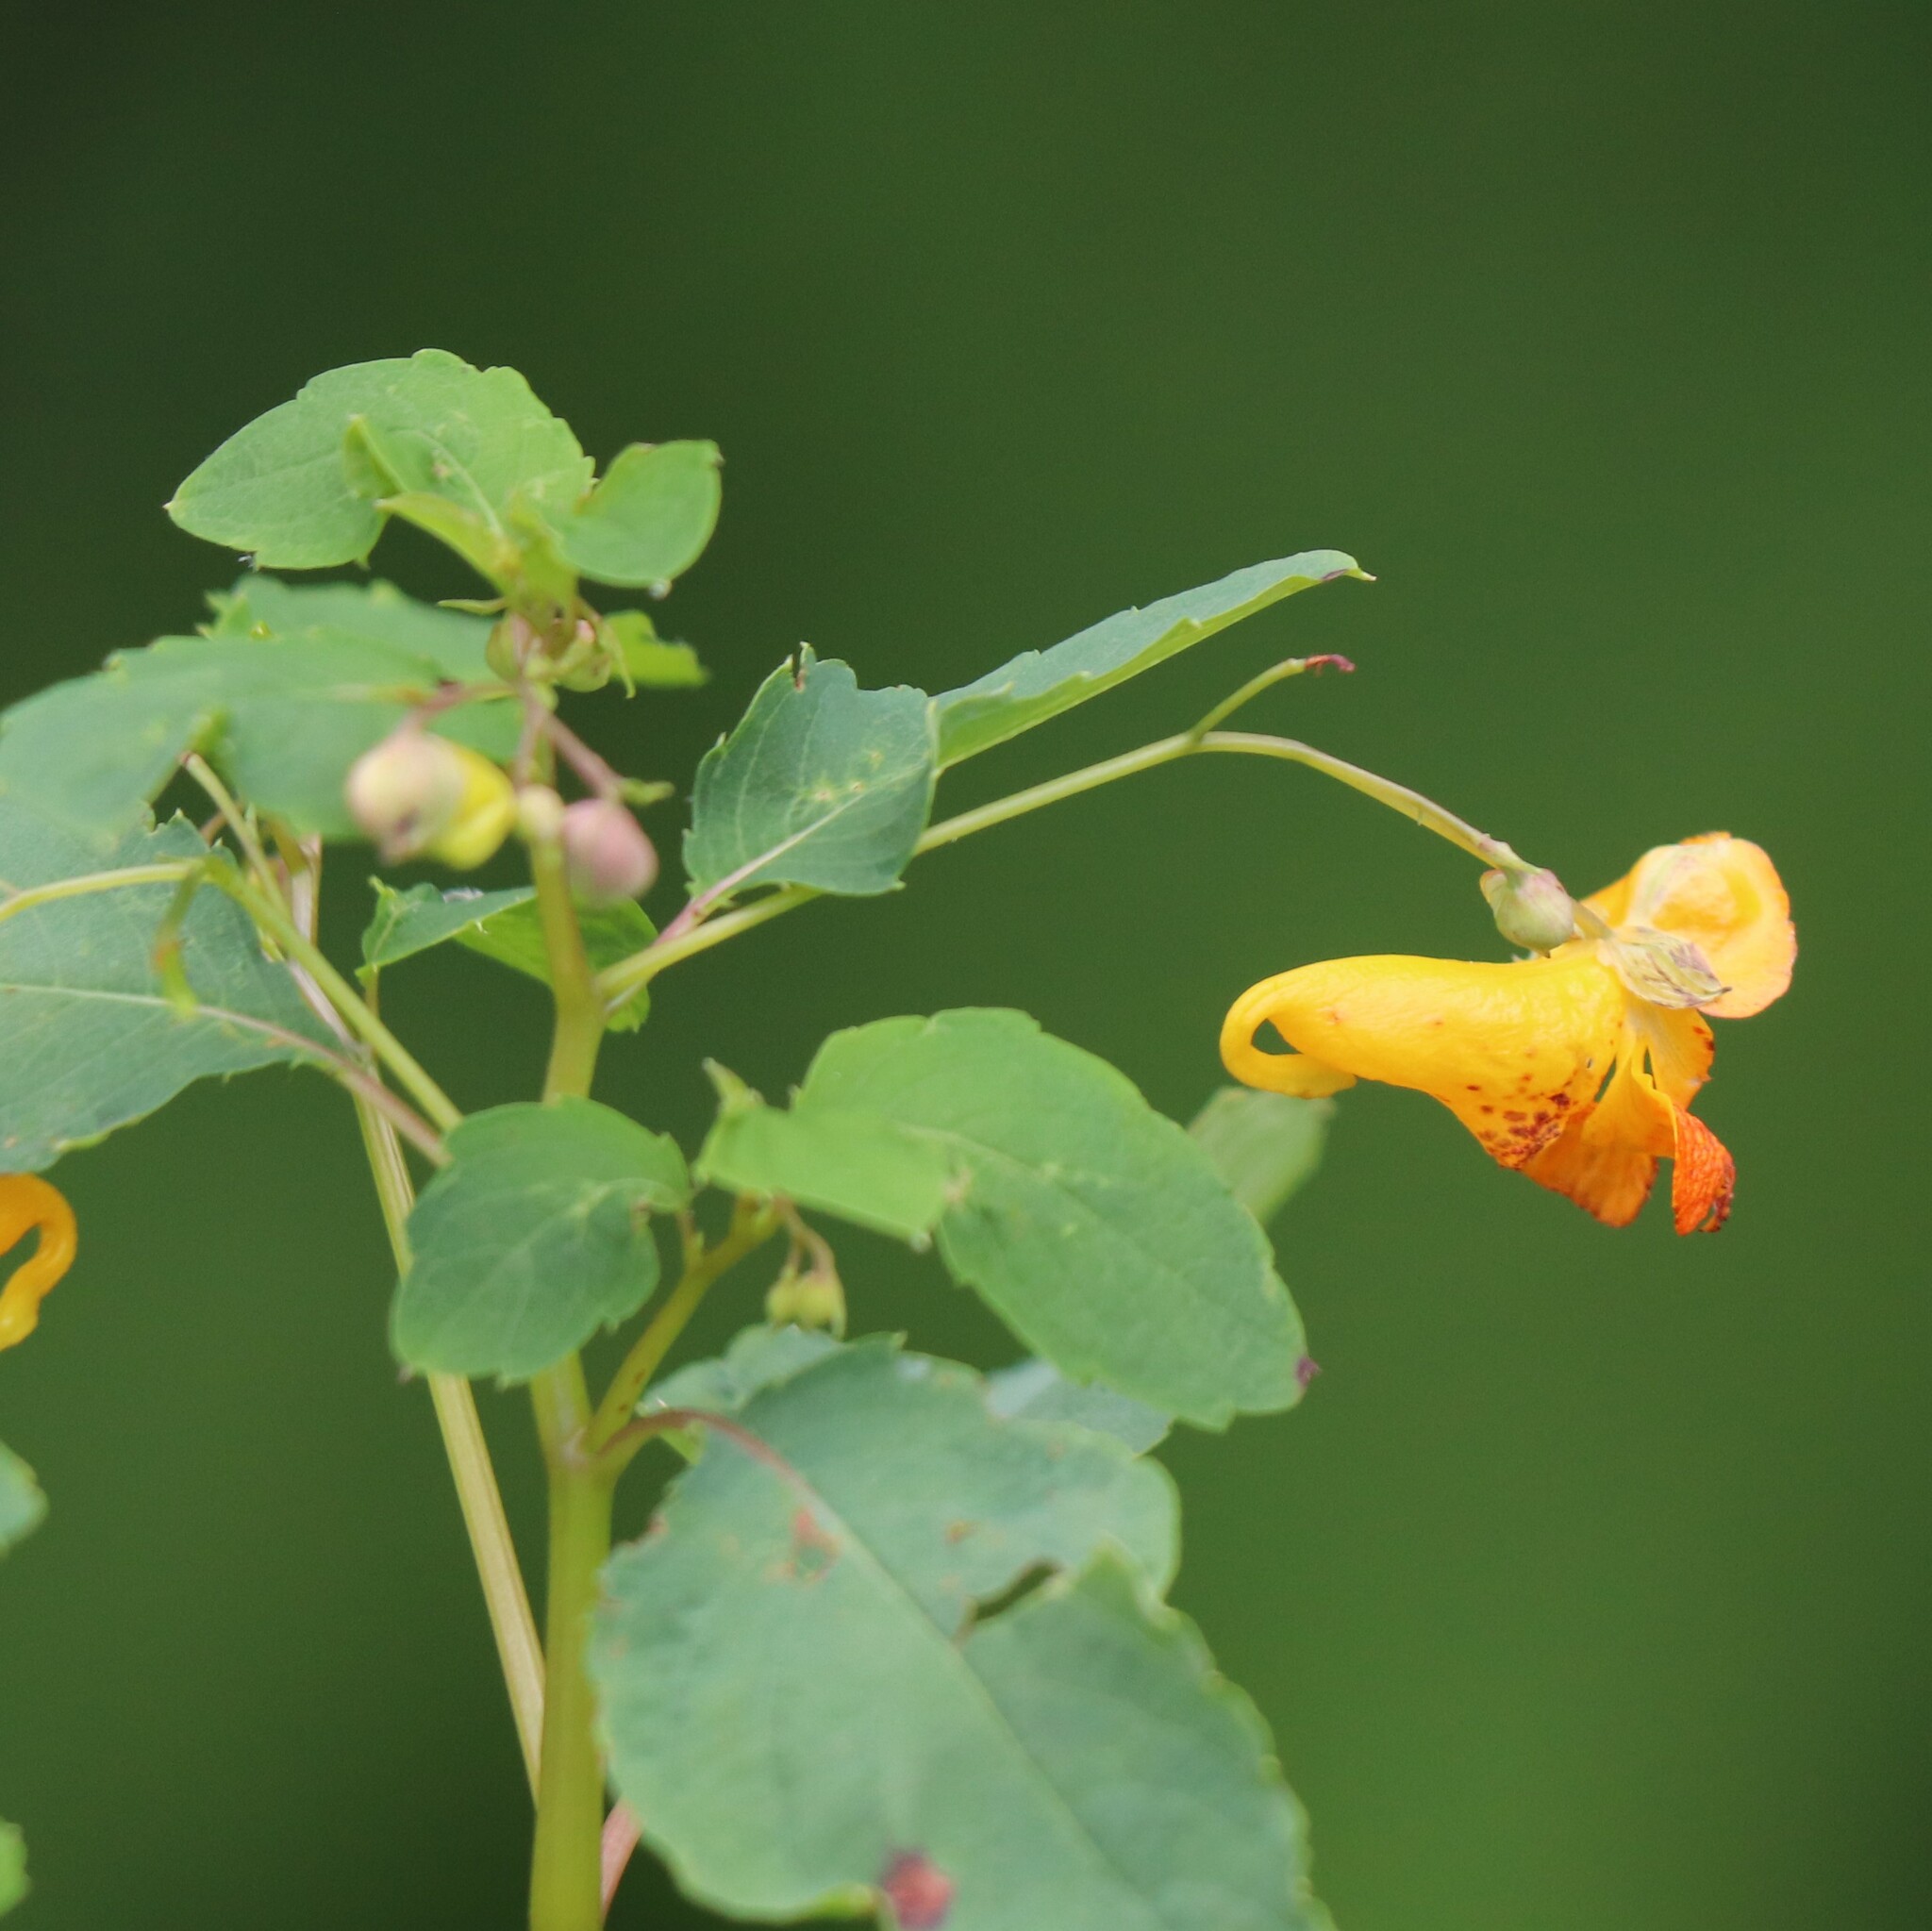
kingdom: Plantae
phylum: Tracheophyta
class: Magnoliopsida
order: Ericales
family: Balsaminaceae
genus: Impatiens
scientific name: Impatiens capensis
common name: Orange balsam
